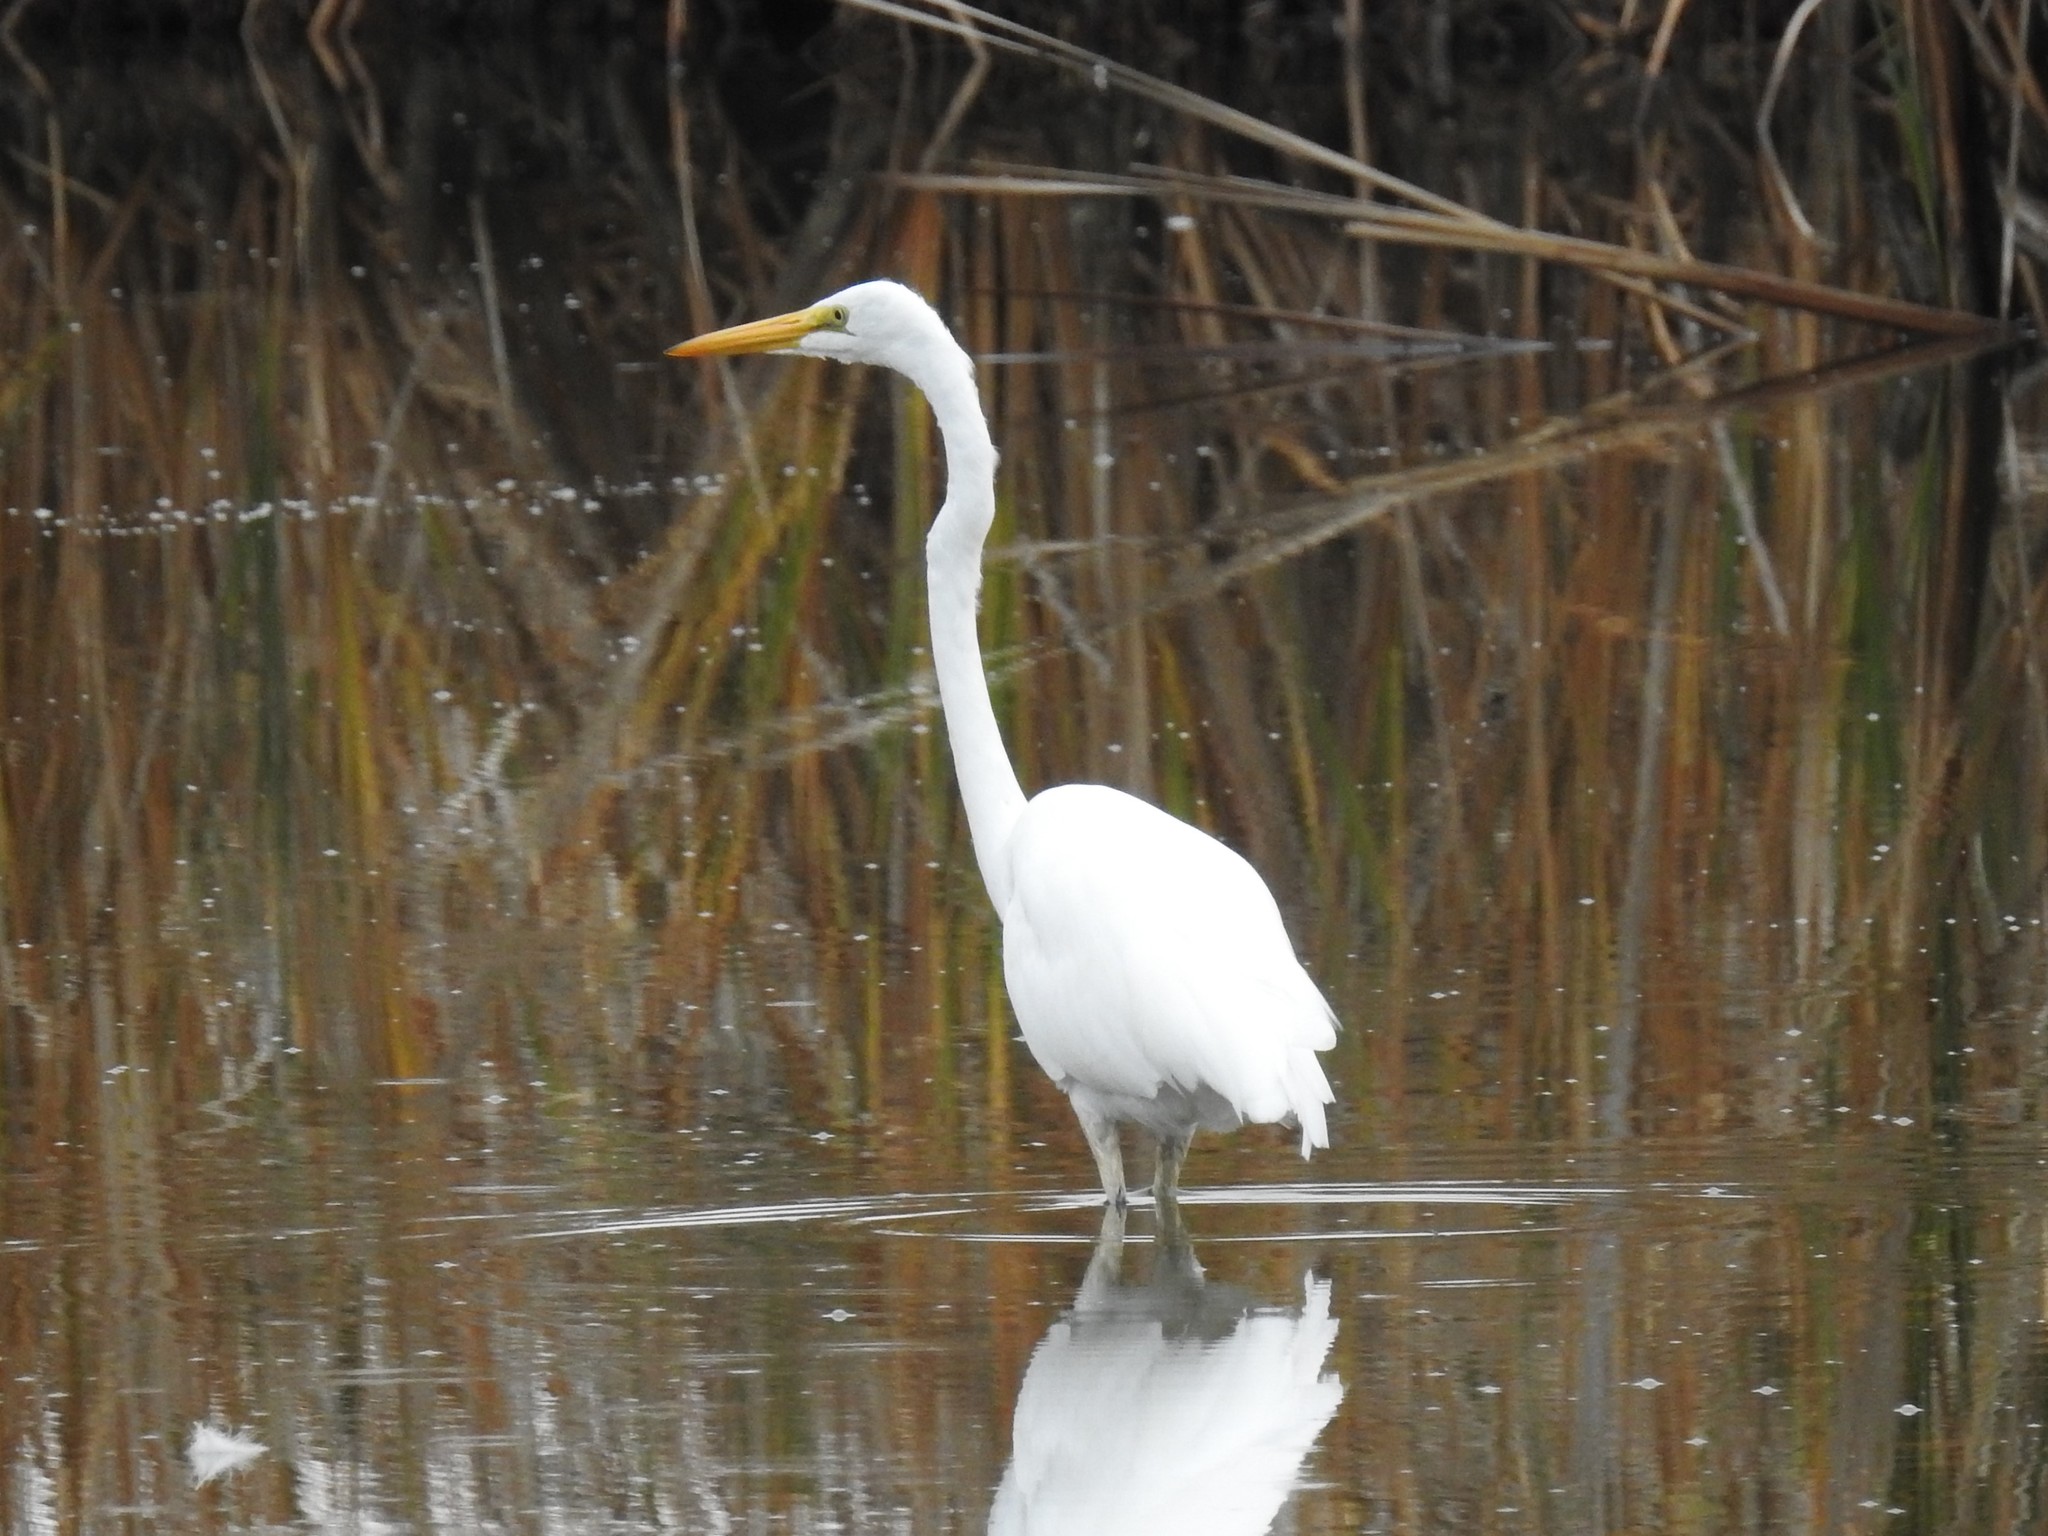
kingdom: Animalia
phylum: Chordata
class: Aves
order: Pelecaniformes
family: Ardeidae
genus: Ardea
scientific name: Ardea alba
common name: Great egret
